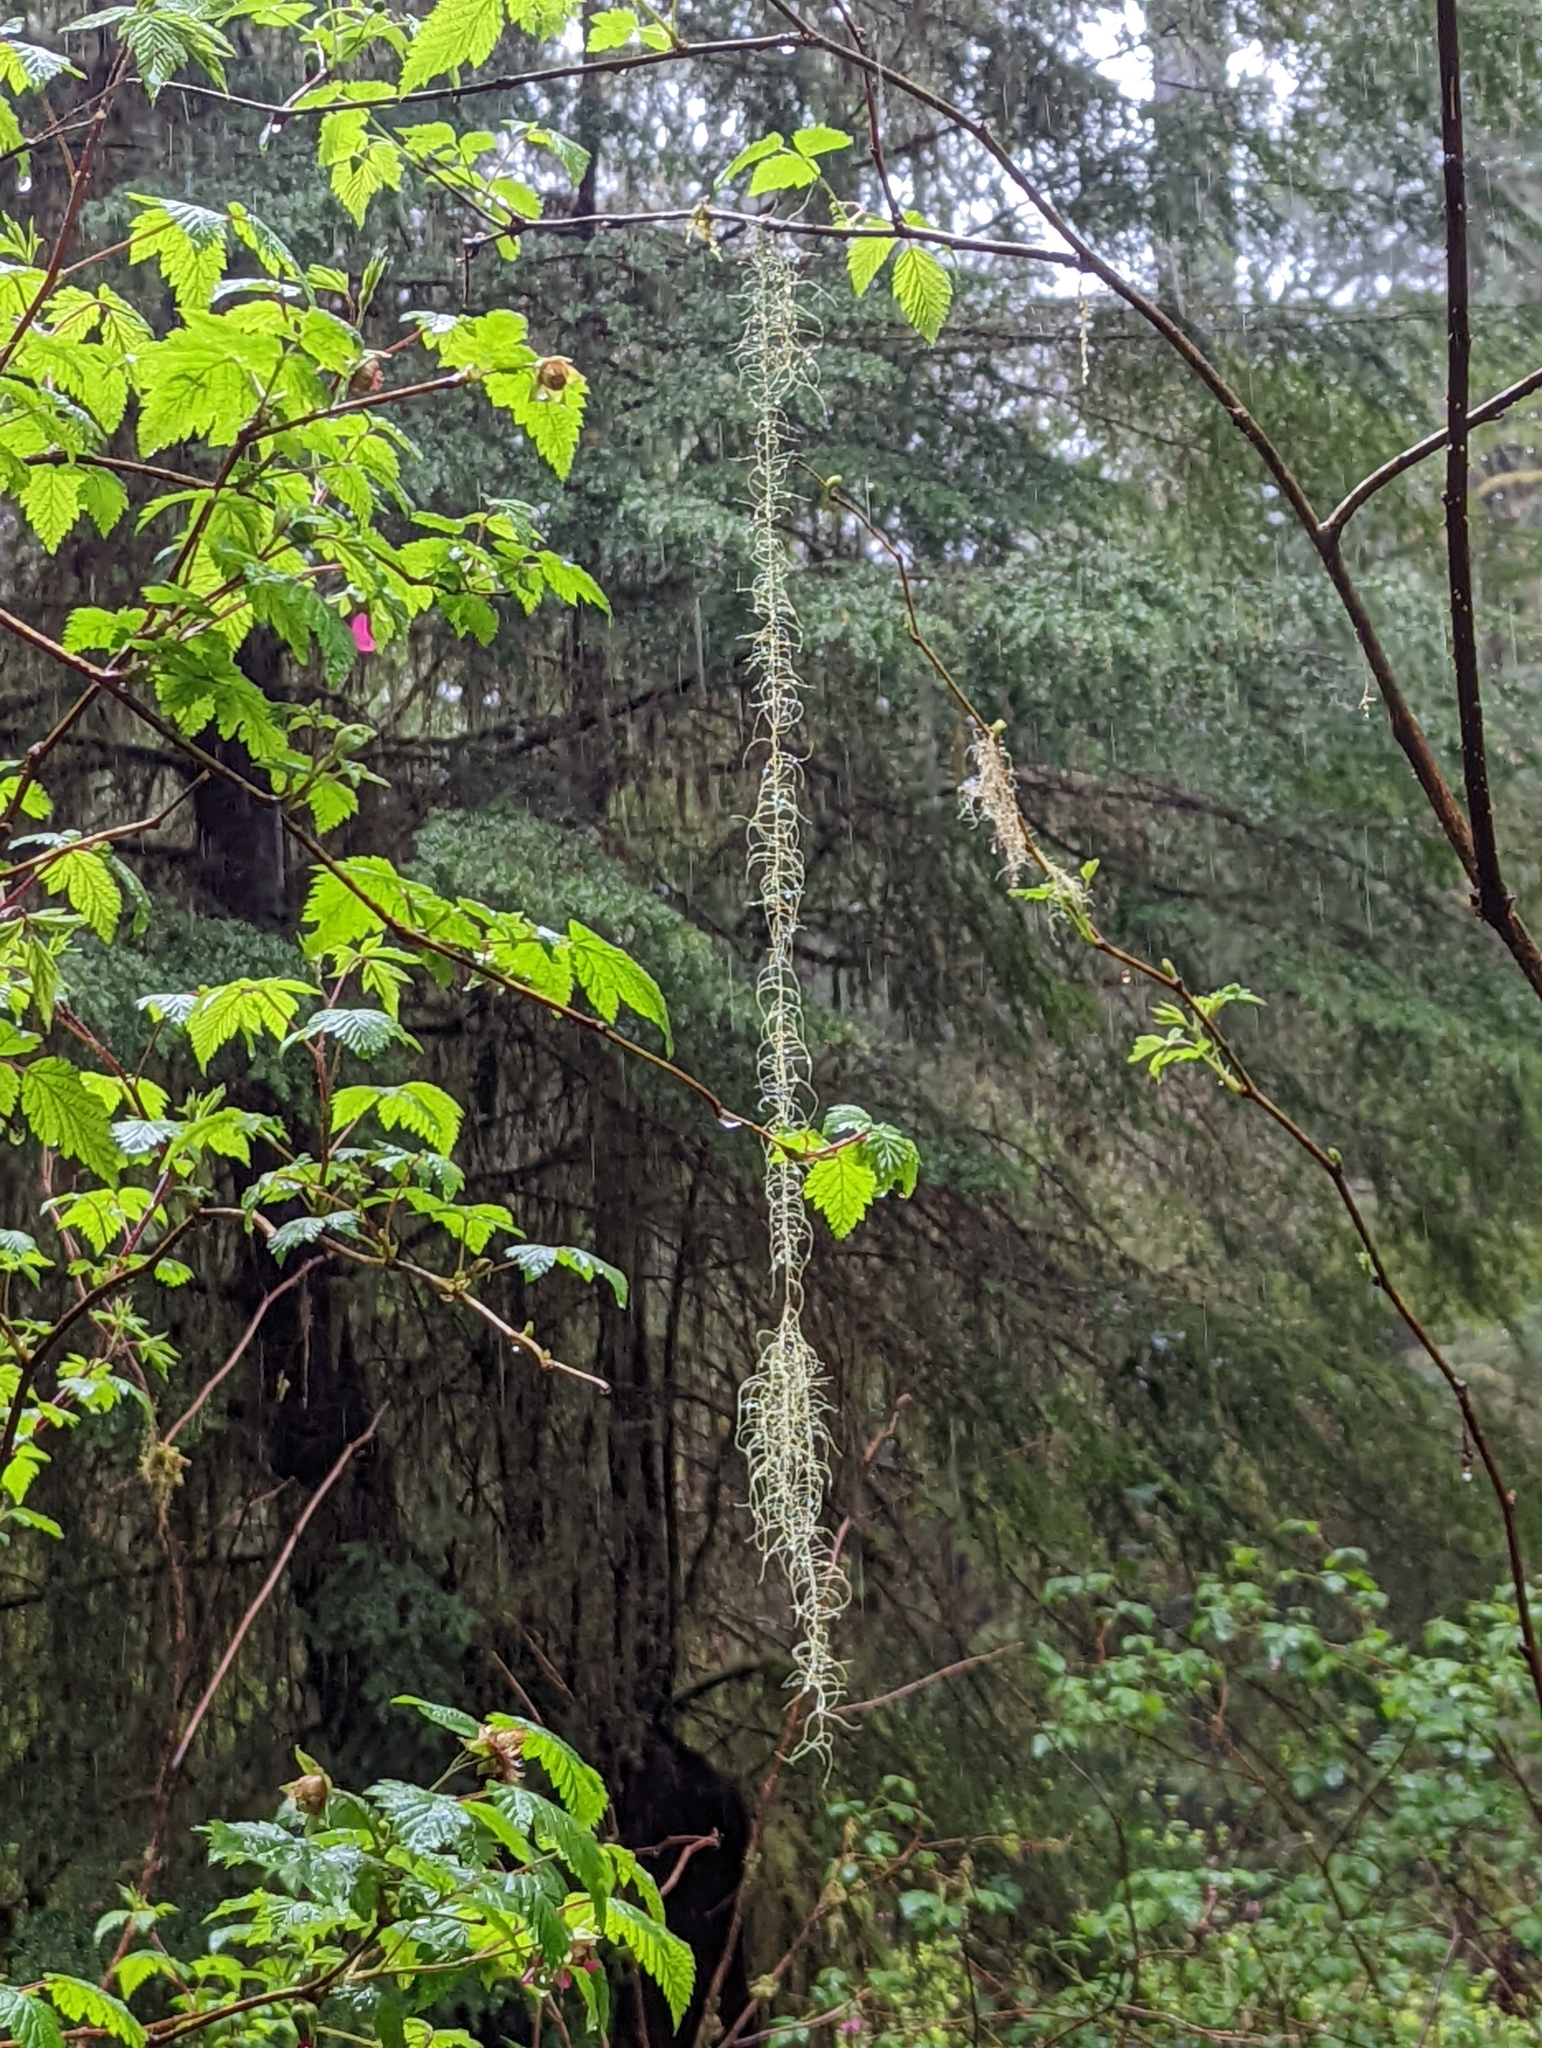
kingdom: Fungi
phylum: Ascomycota
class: Lecanoromycetes
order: Lecanorales
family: Parmeliaceae
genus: Dolichousnea
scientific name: Dolichousnea longissima
